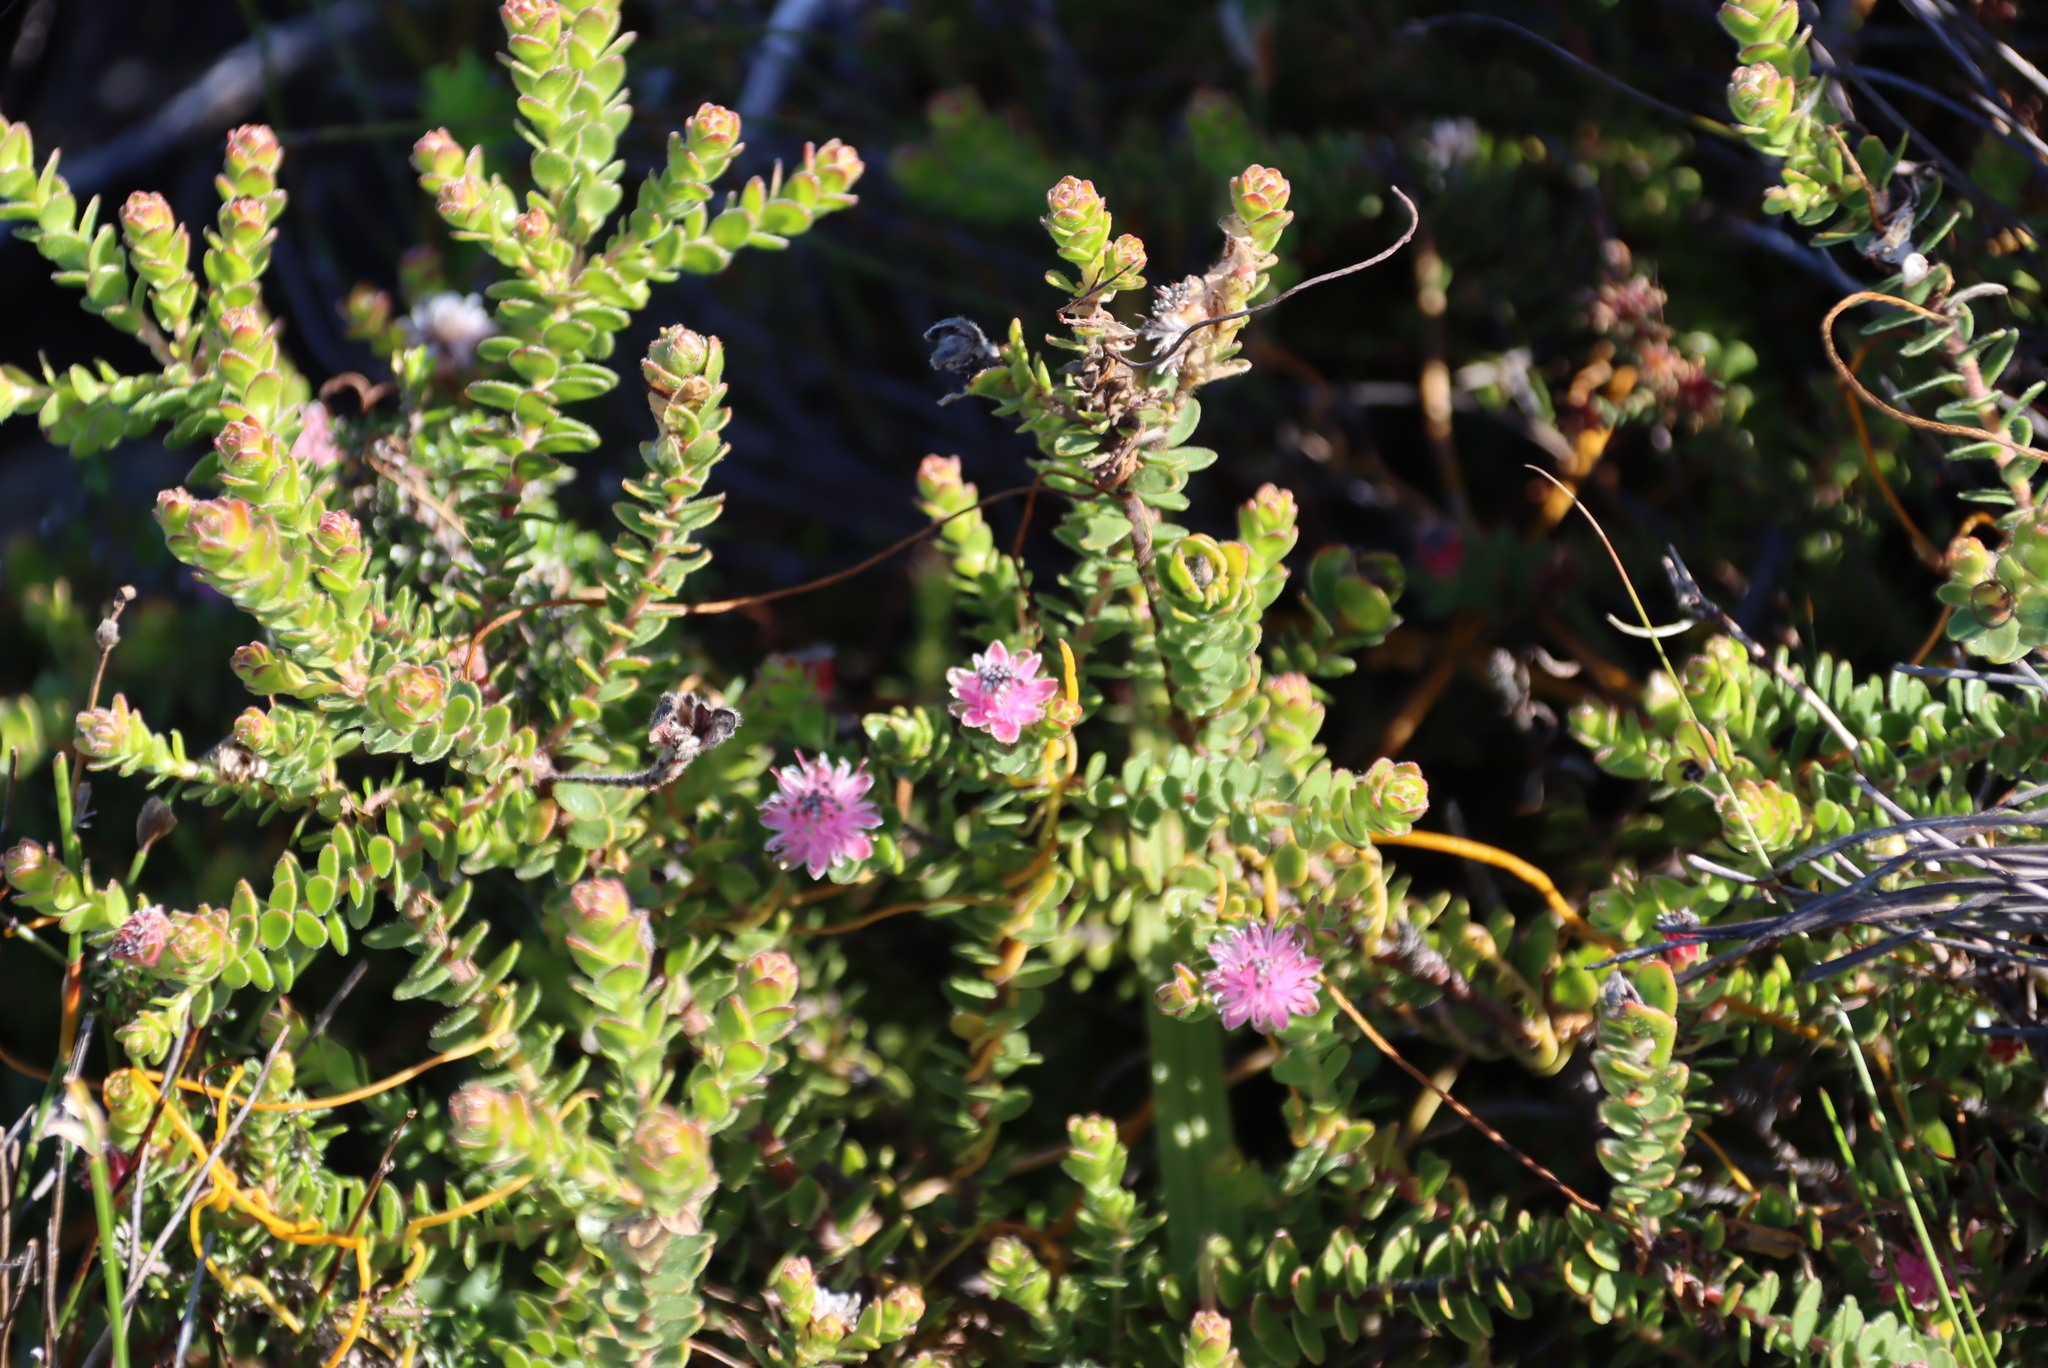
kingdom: Plantae
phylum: Tracheophyta
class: Magnoliopsida
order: Proteales
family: Proteaceae
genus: Diastella
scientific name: Diastella divaricata
